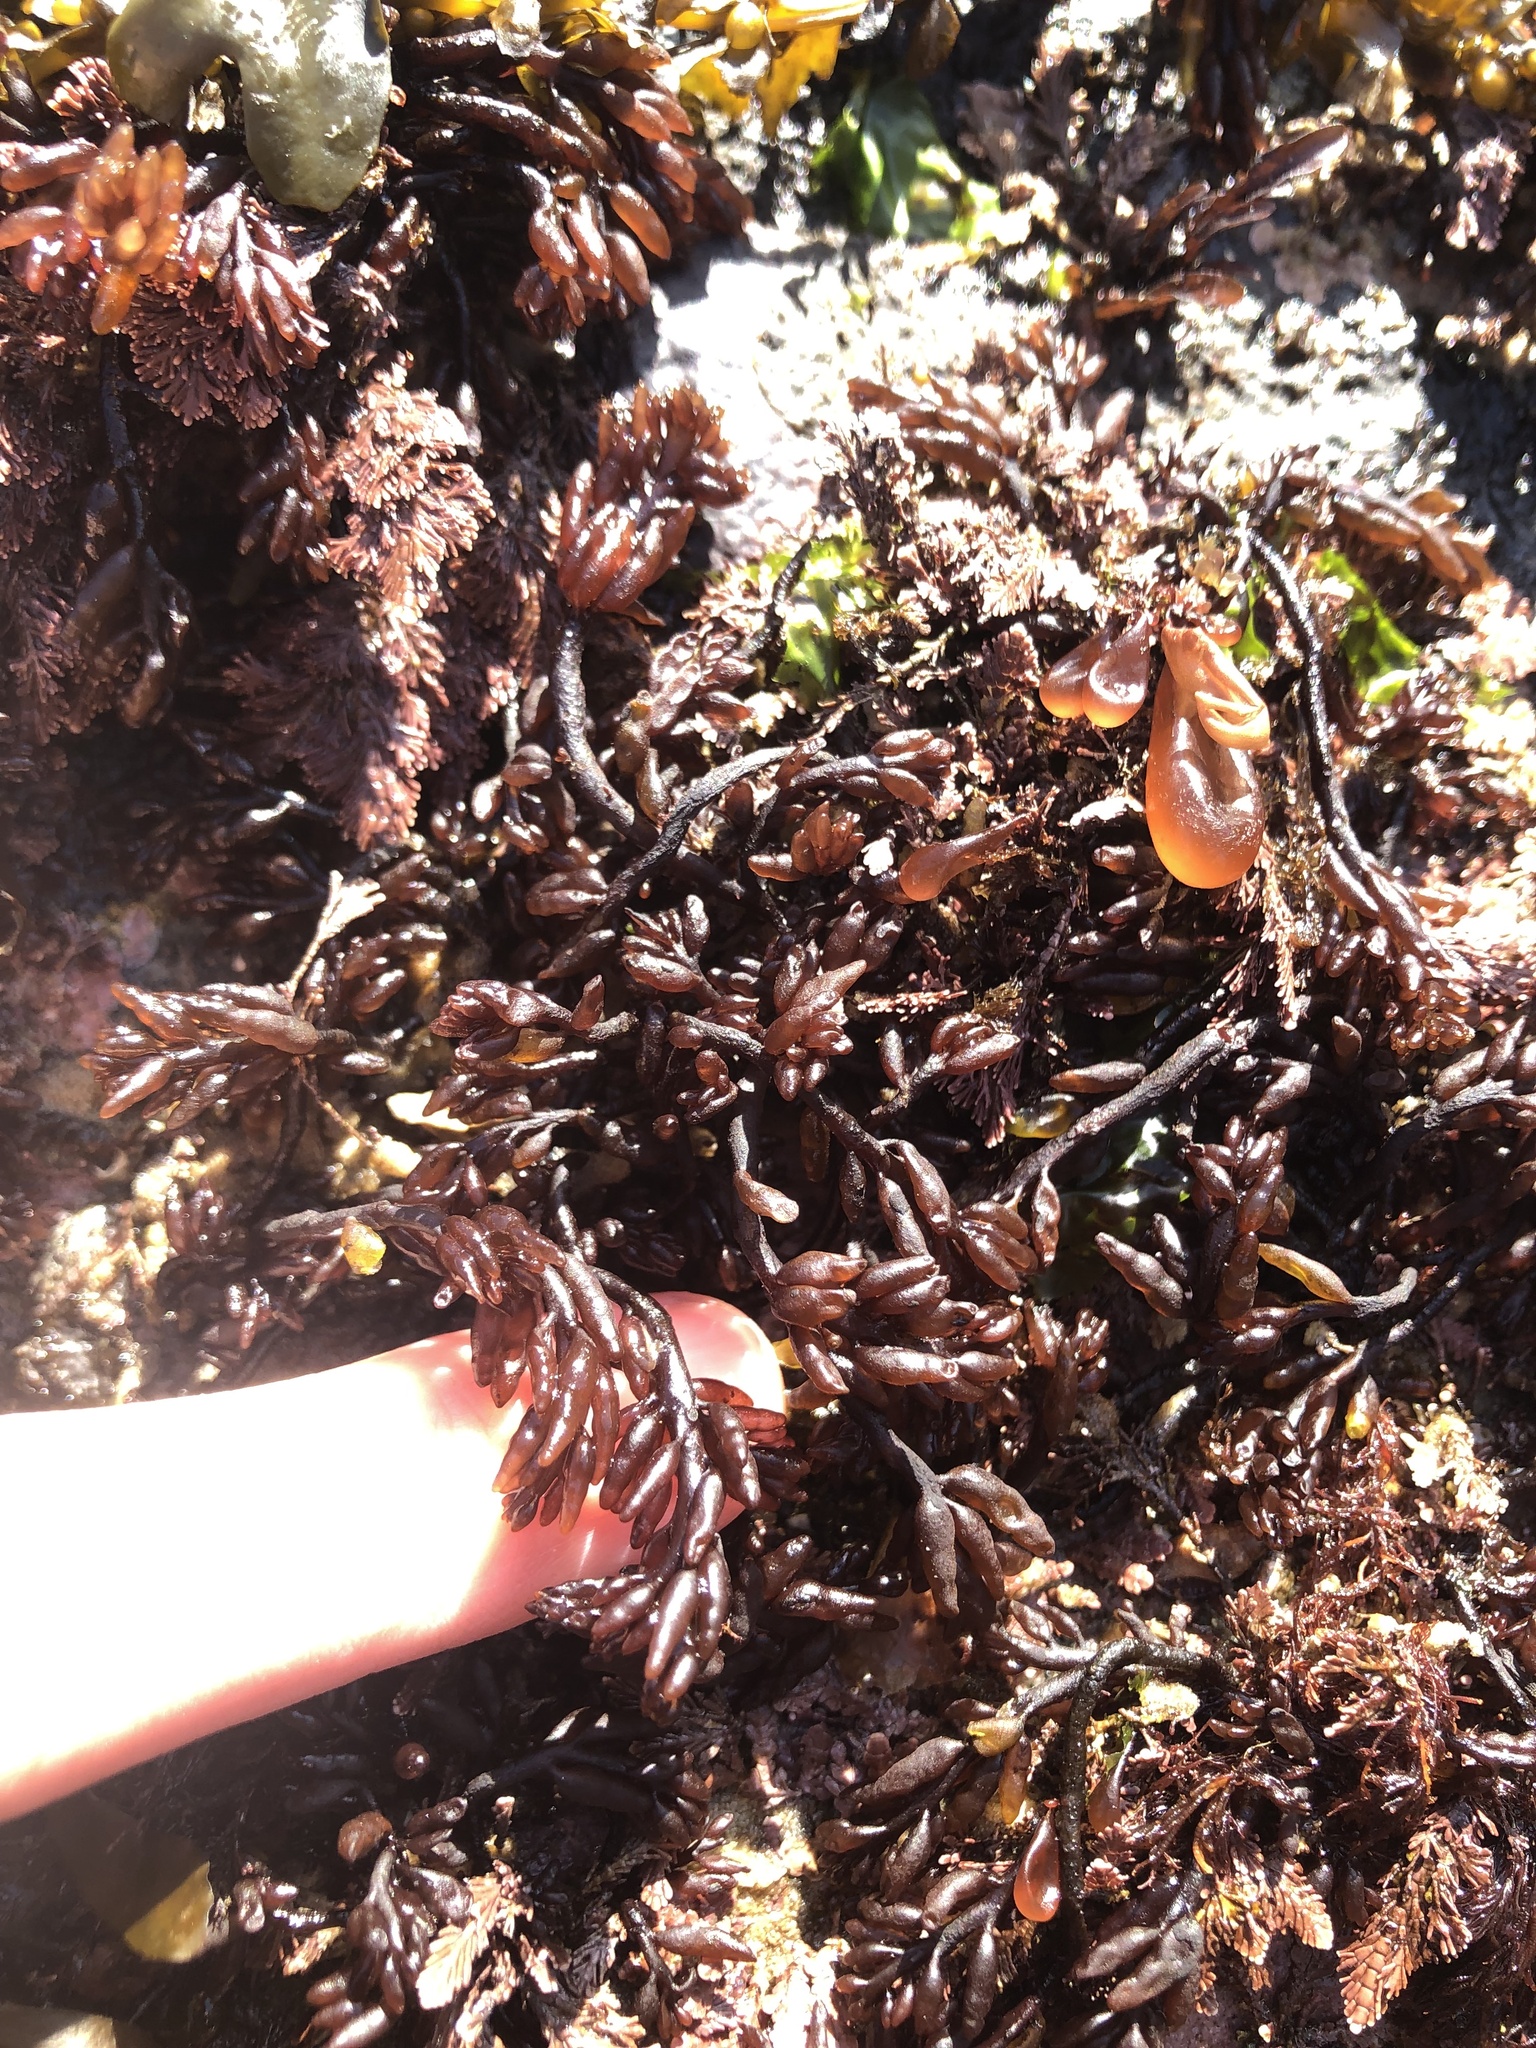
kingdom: Plantae
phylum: Rhodophyta
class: Florideophyceae
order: Rhodymeniales
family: Champiaceae
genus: Neogastroclonium
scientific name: Neogastroclonium subarticulatum
